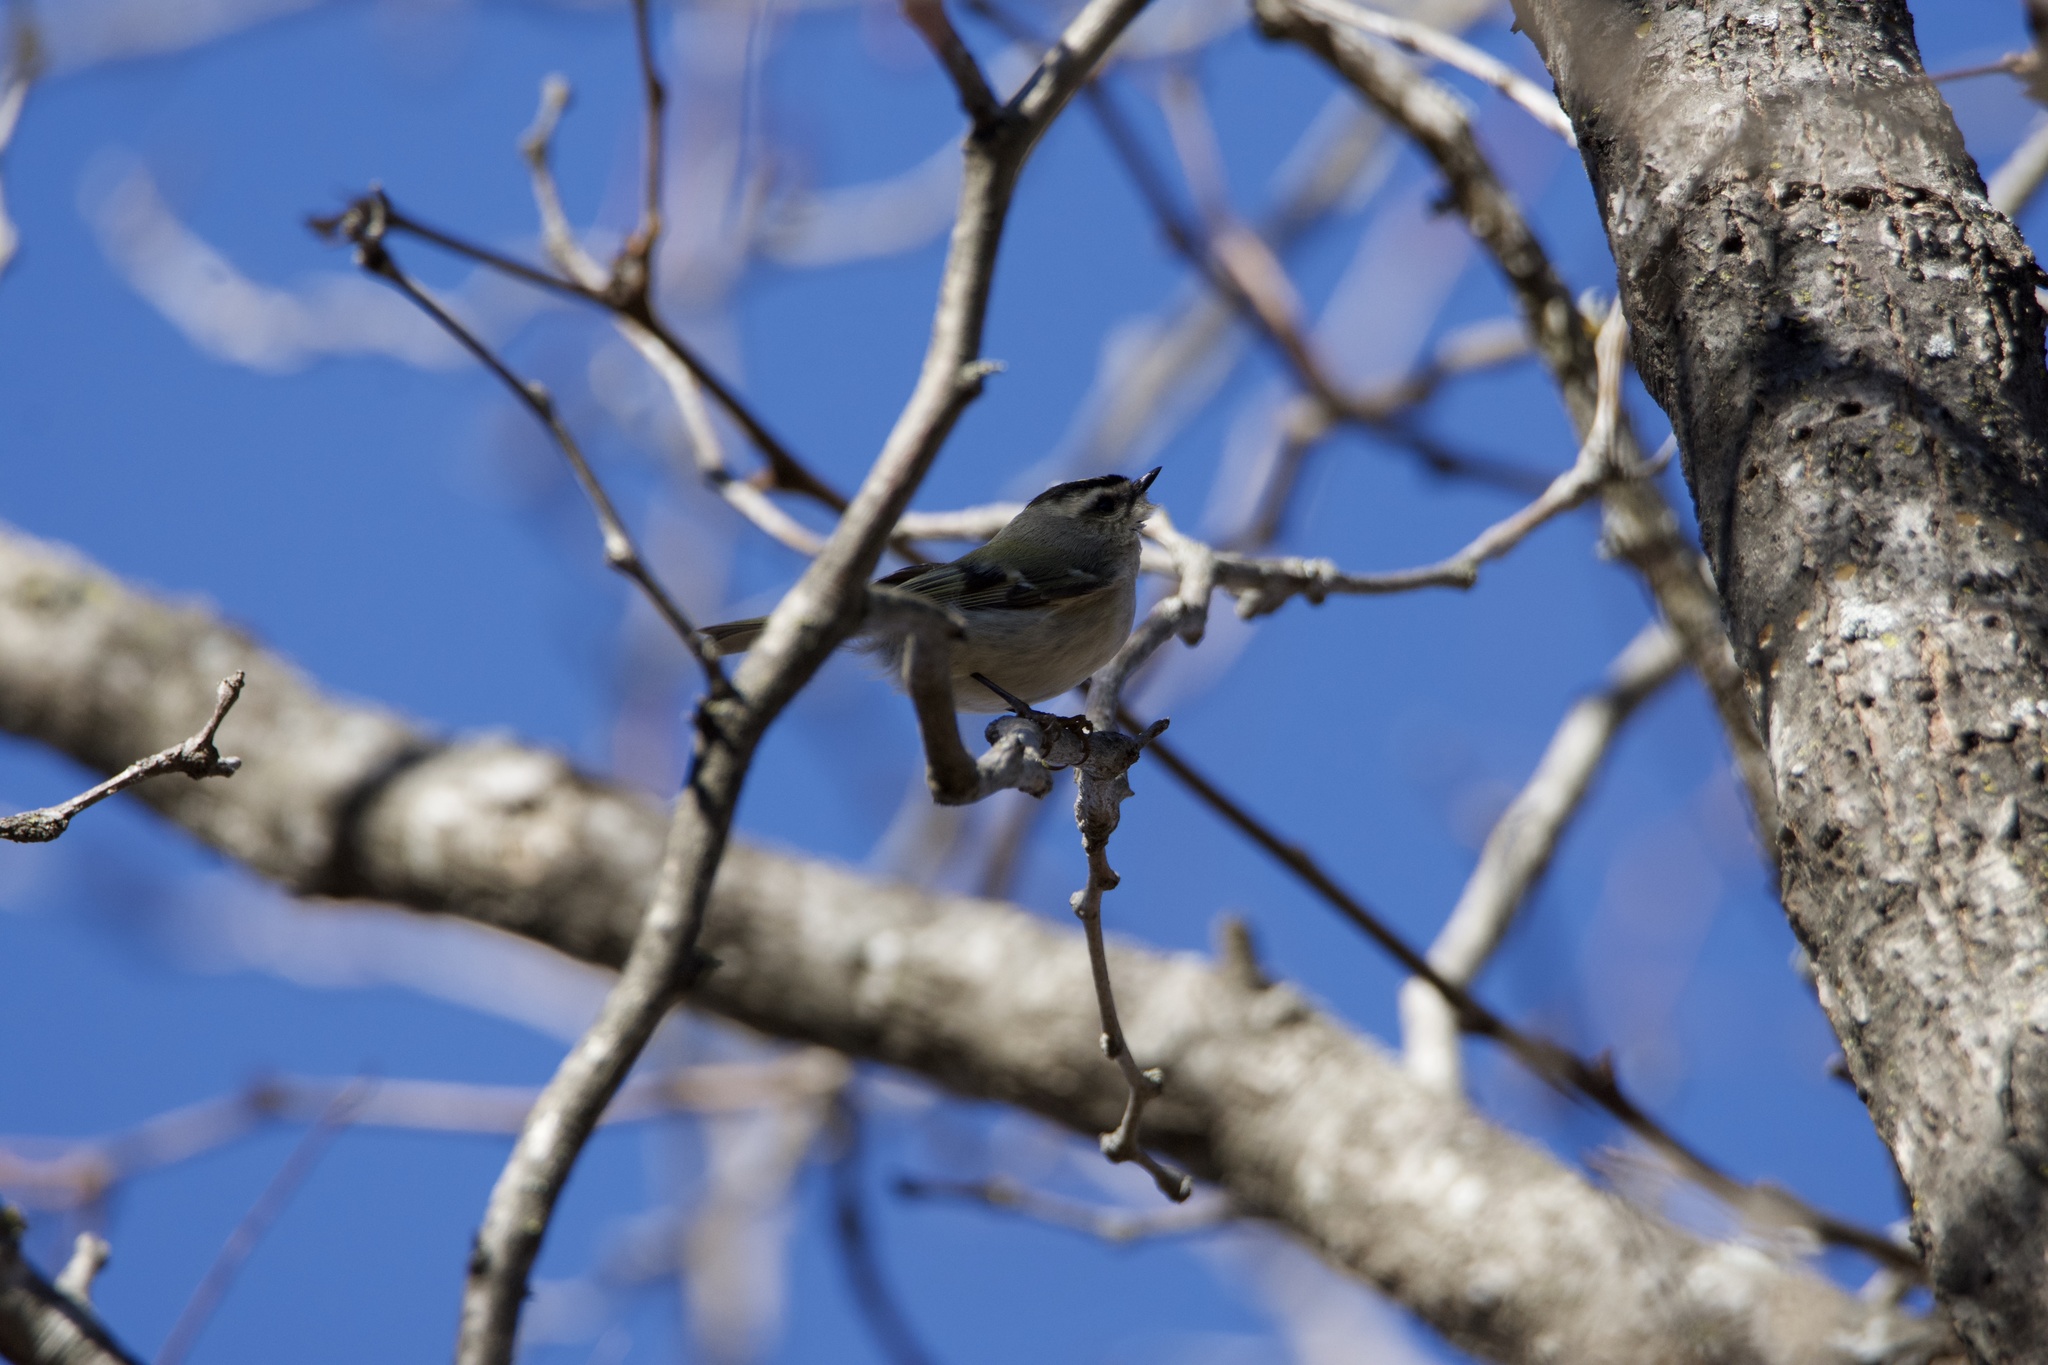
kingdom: Animalia
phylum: Chordata
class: Aves
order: Passeriformes
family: Regulidae
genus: Regulus
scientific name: Regulus satrapa
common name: Golden-crowned kinglet
